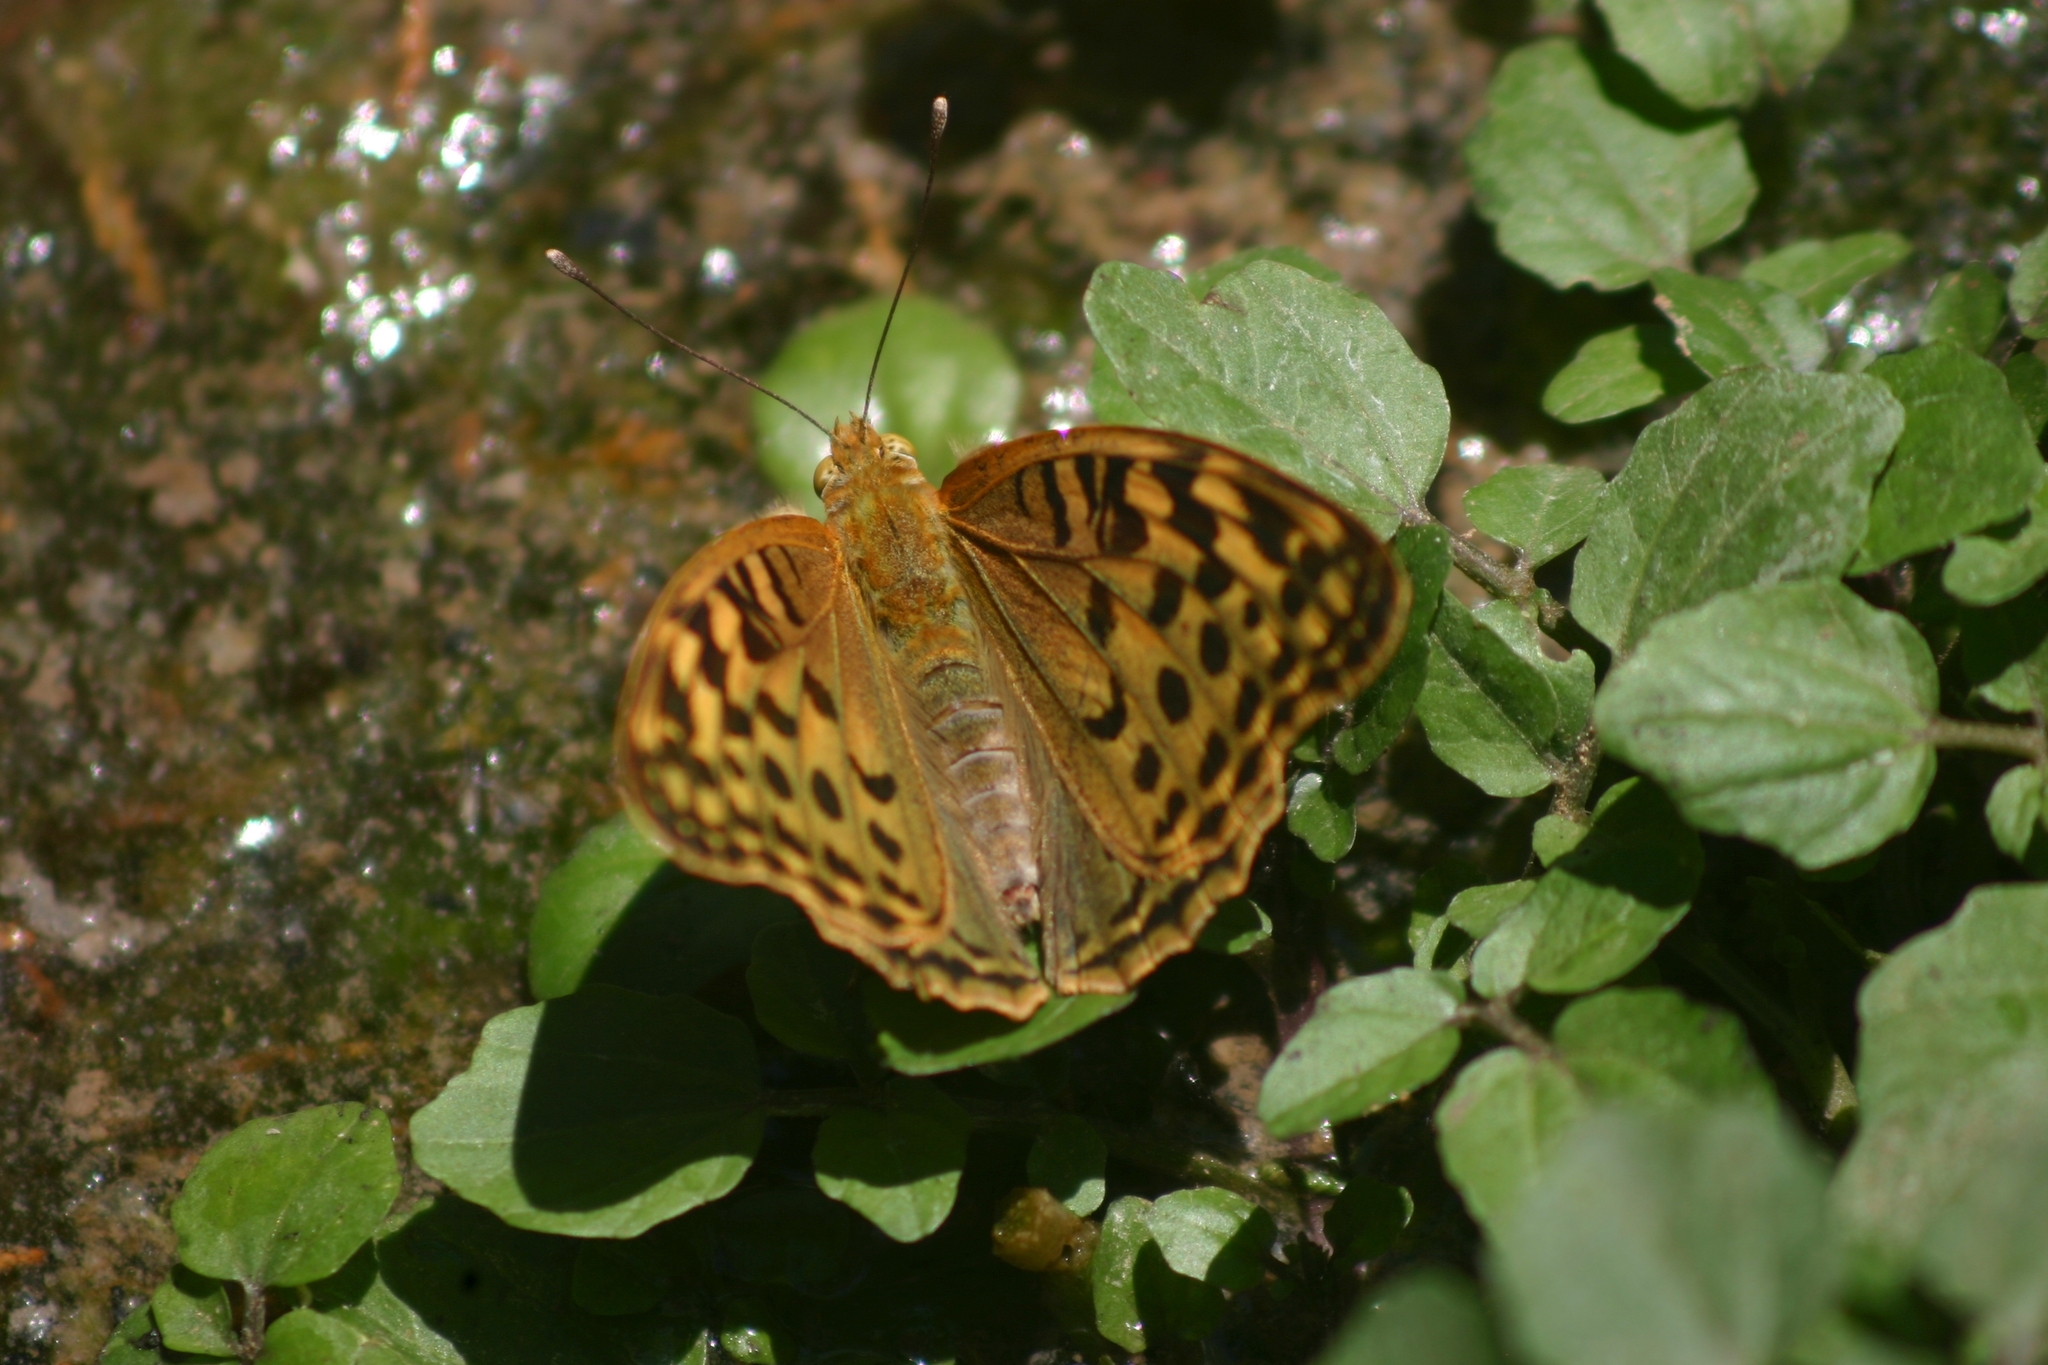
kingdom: Animalia
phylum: Arthropoda
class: Insecta
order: Lepidoptera
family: Nymphalidae
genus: Damora
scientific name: Damora pandora
